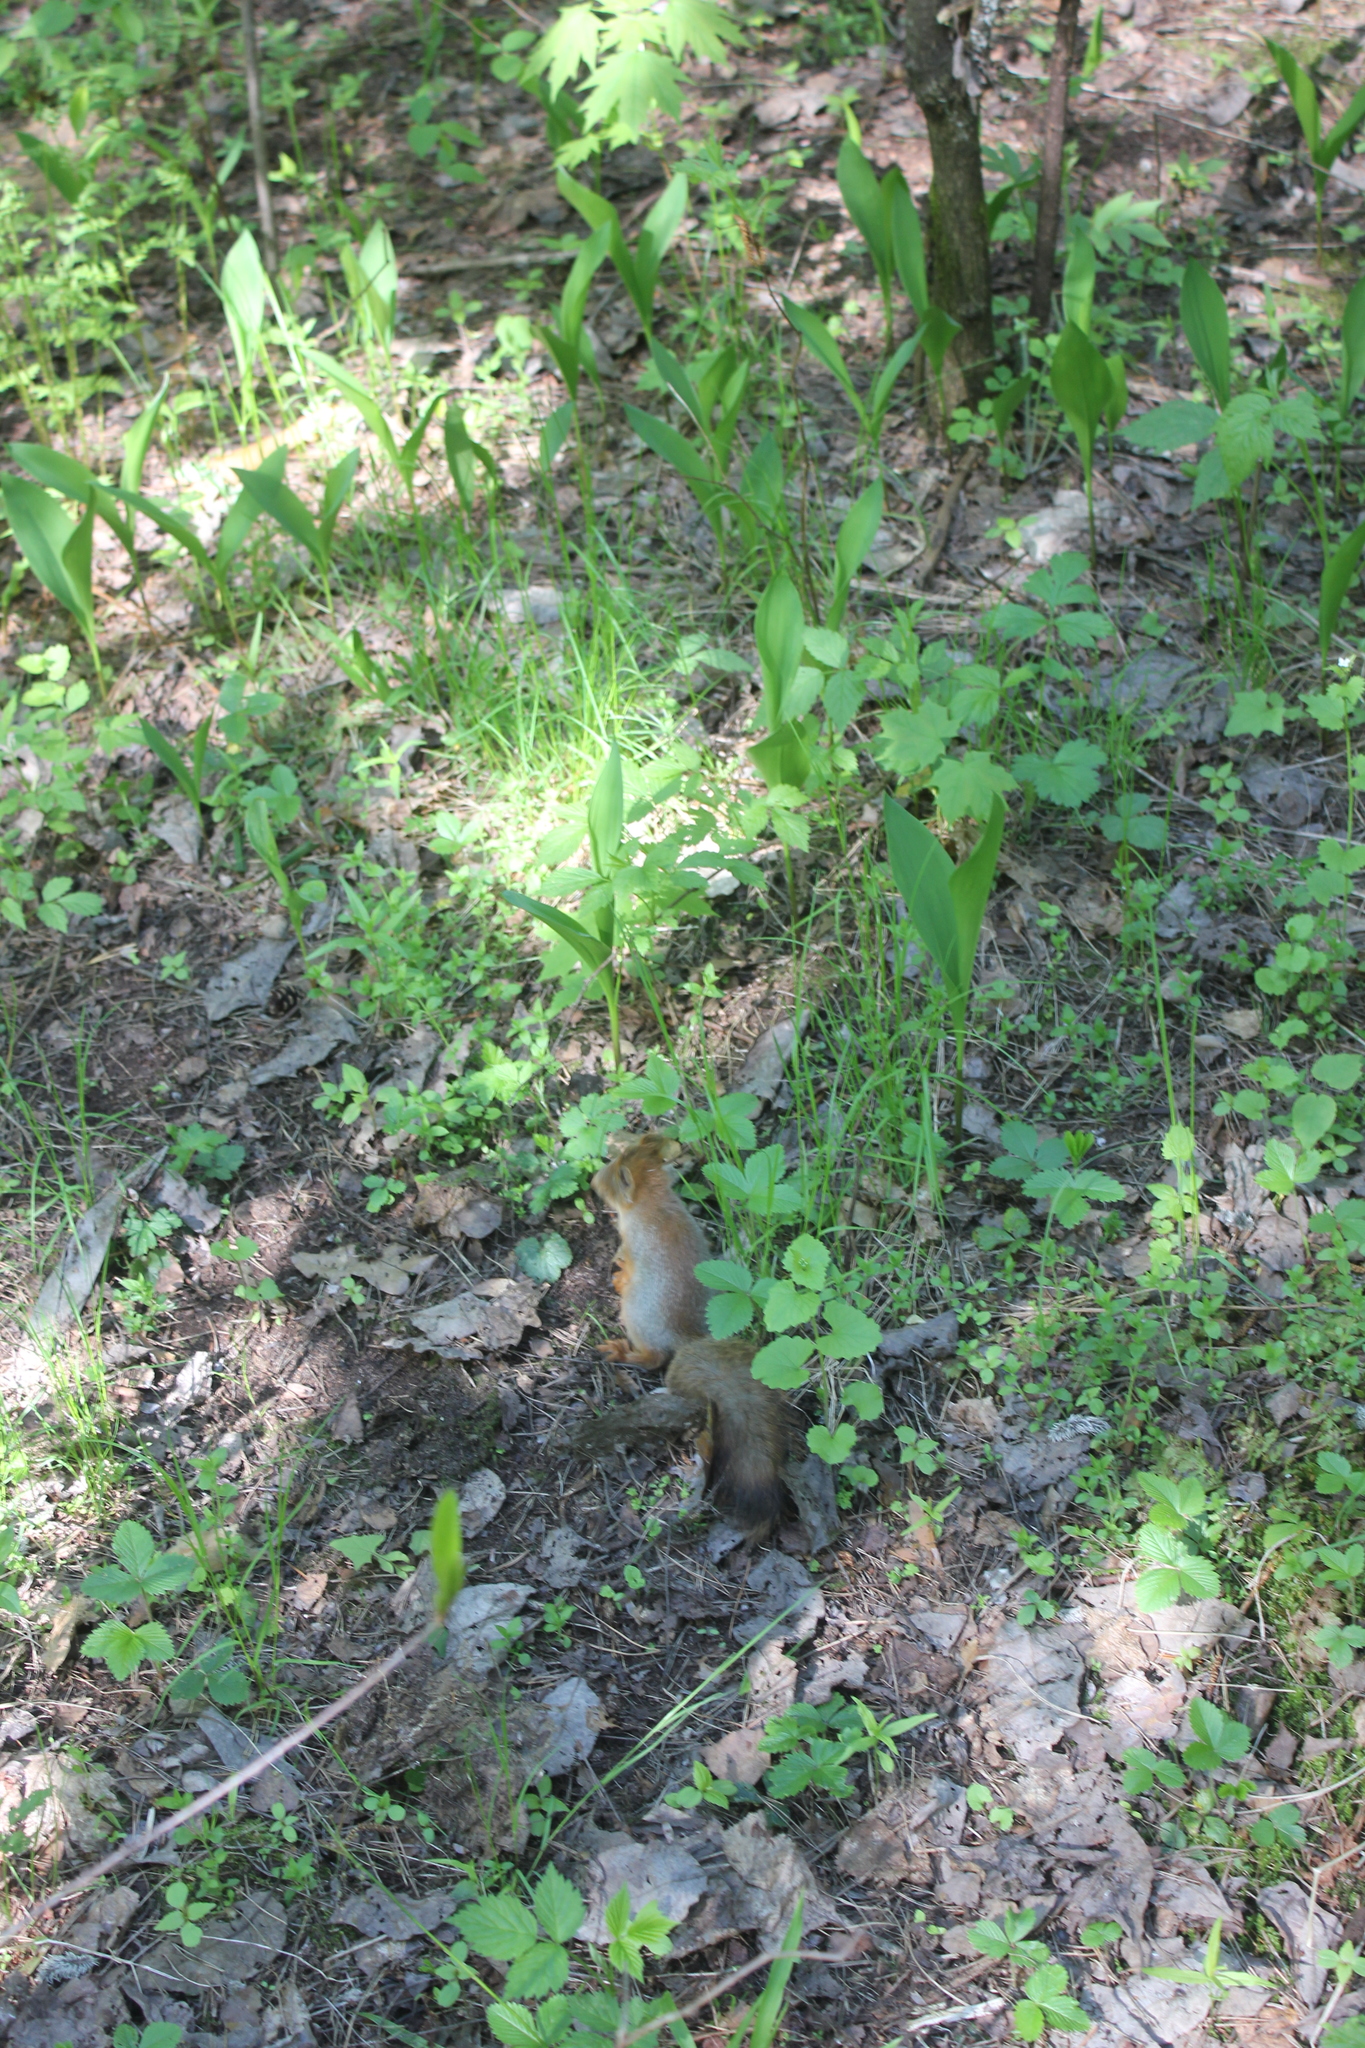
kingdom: Animalia
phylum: Chordata
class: Mammalia
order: Rodentia
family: Sciuridae
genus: Sciurus
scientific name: Sciurus vulgaris
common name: Eurasian red squirrel
